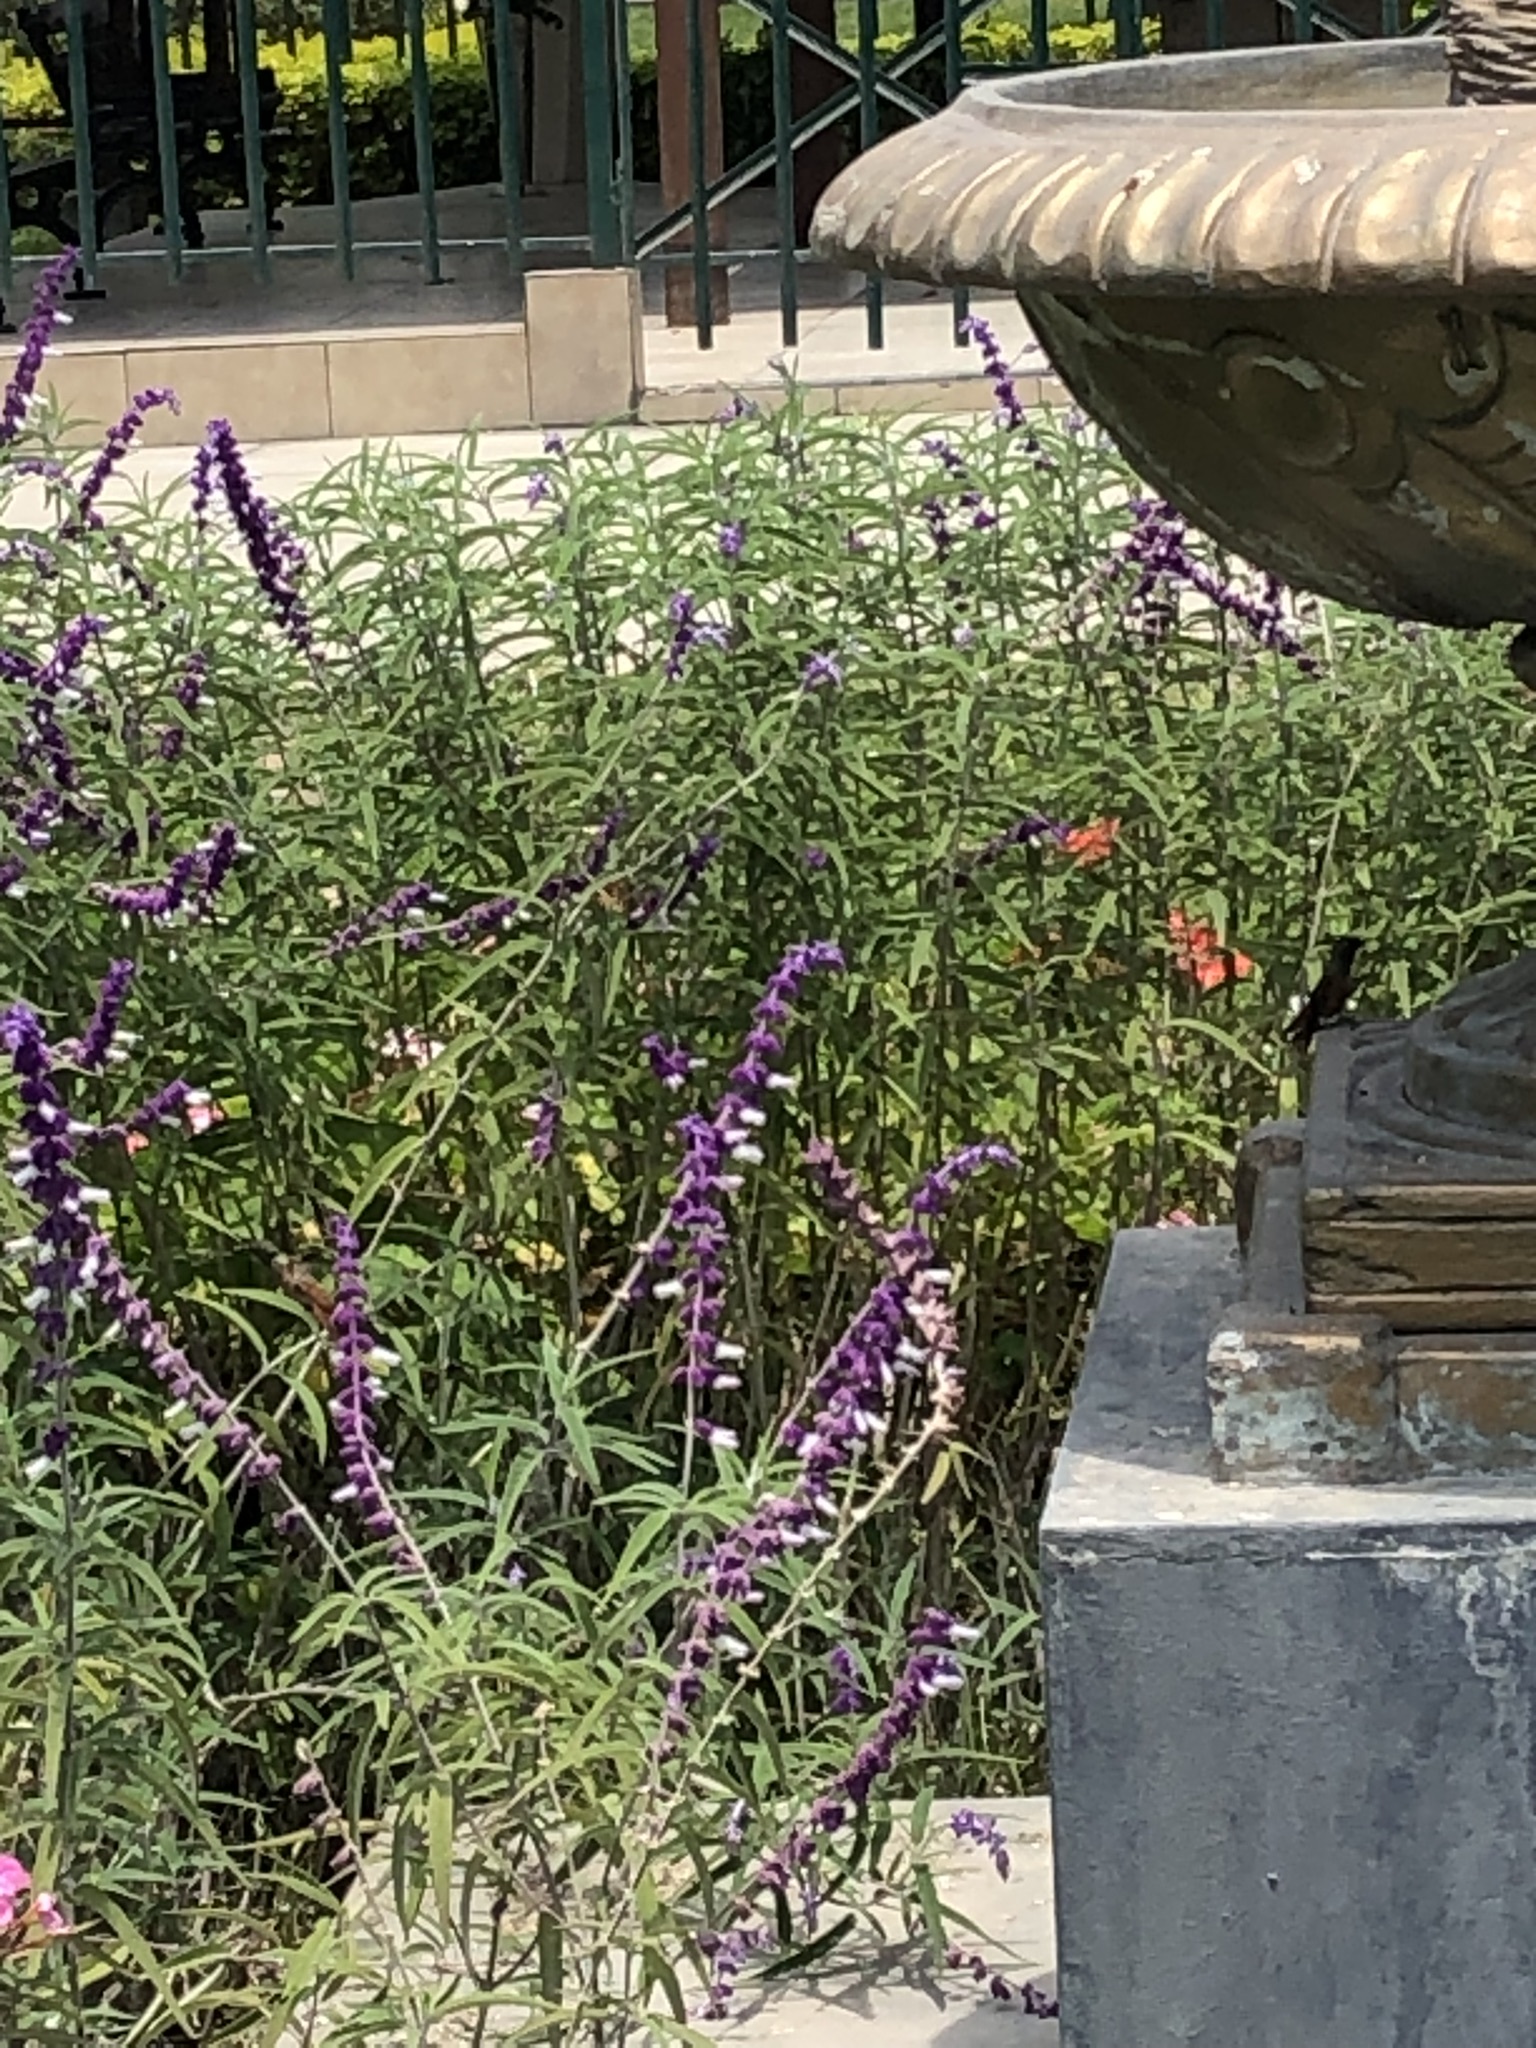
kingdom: Animalia
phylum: Chordata
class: Aves
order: Apodiformes
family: Trochilidae
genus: Amazilis
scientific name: Amazilis amazilia
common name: Amazilia hummingbird
